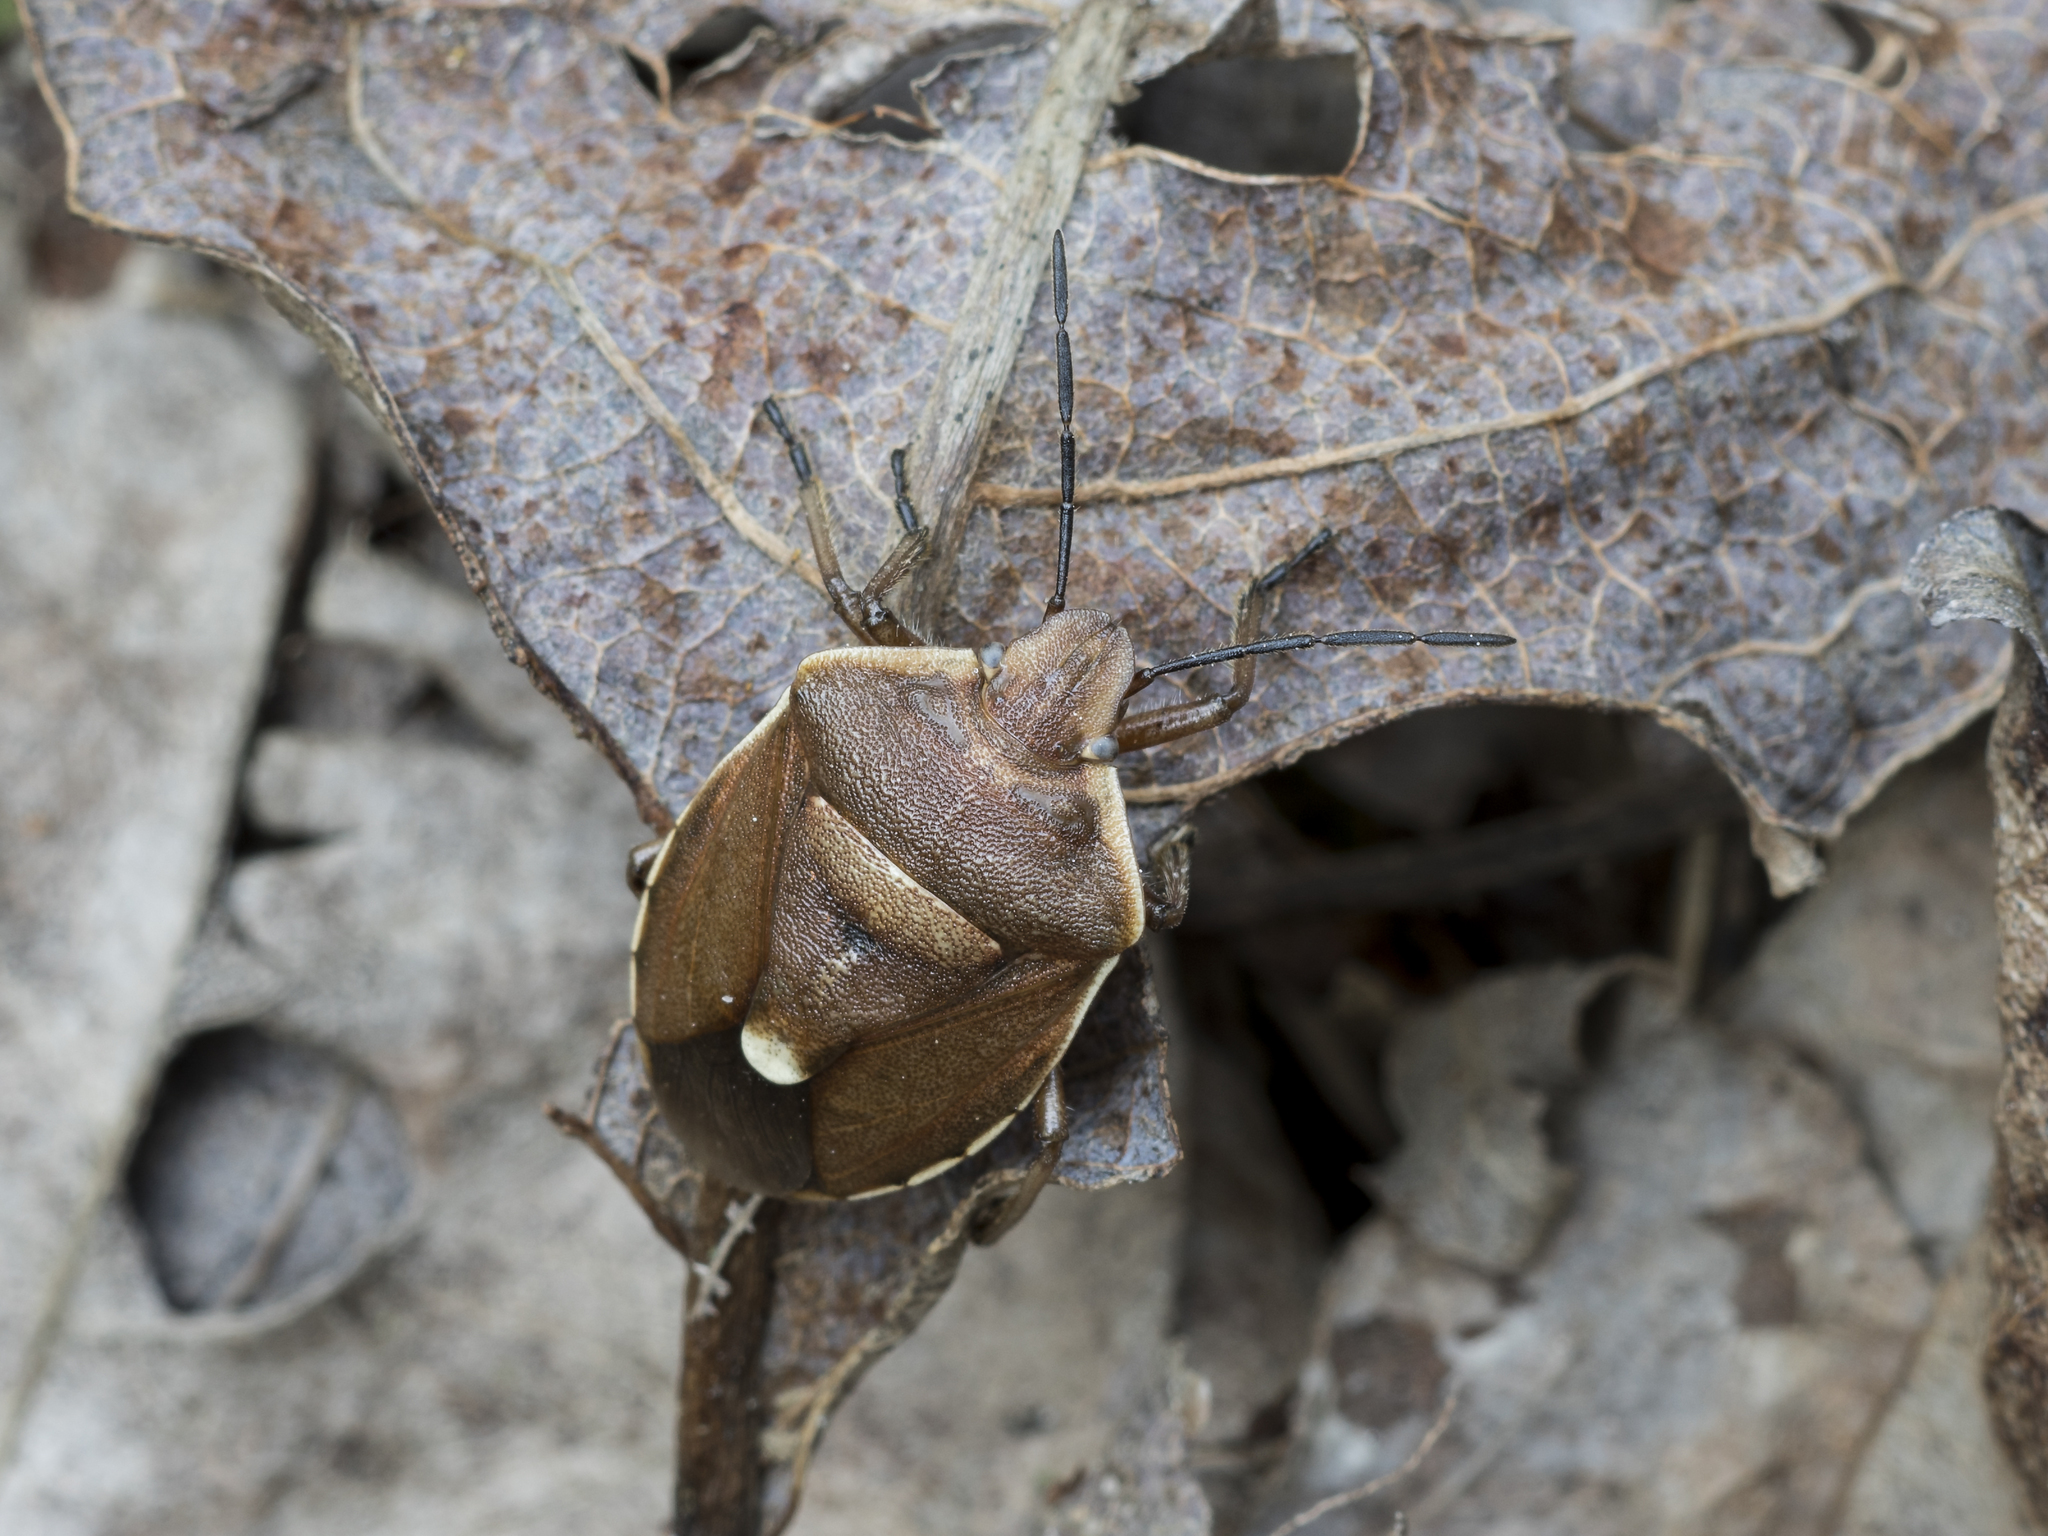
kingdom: Animalia
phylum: Arthropoda
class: Insecta
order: Hemiptera
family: Pentatomidae
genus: Chlorochroa
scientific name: Chlorochroa pinicola
